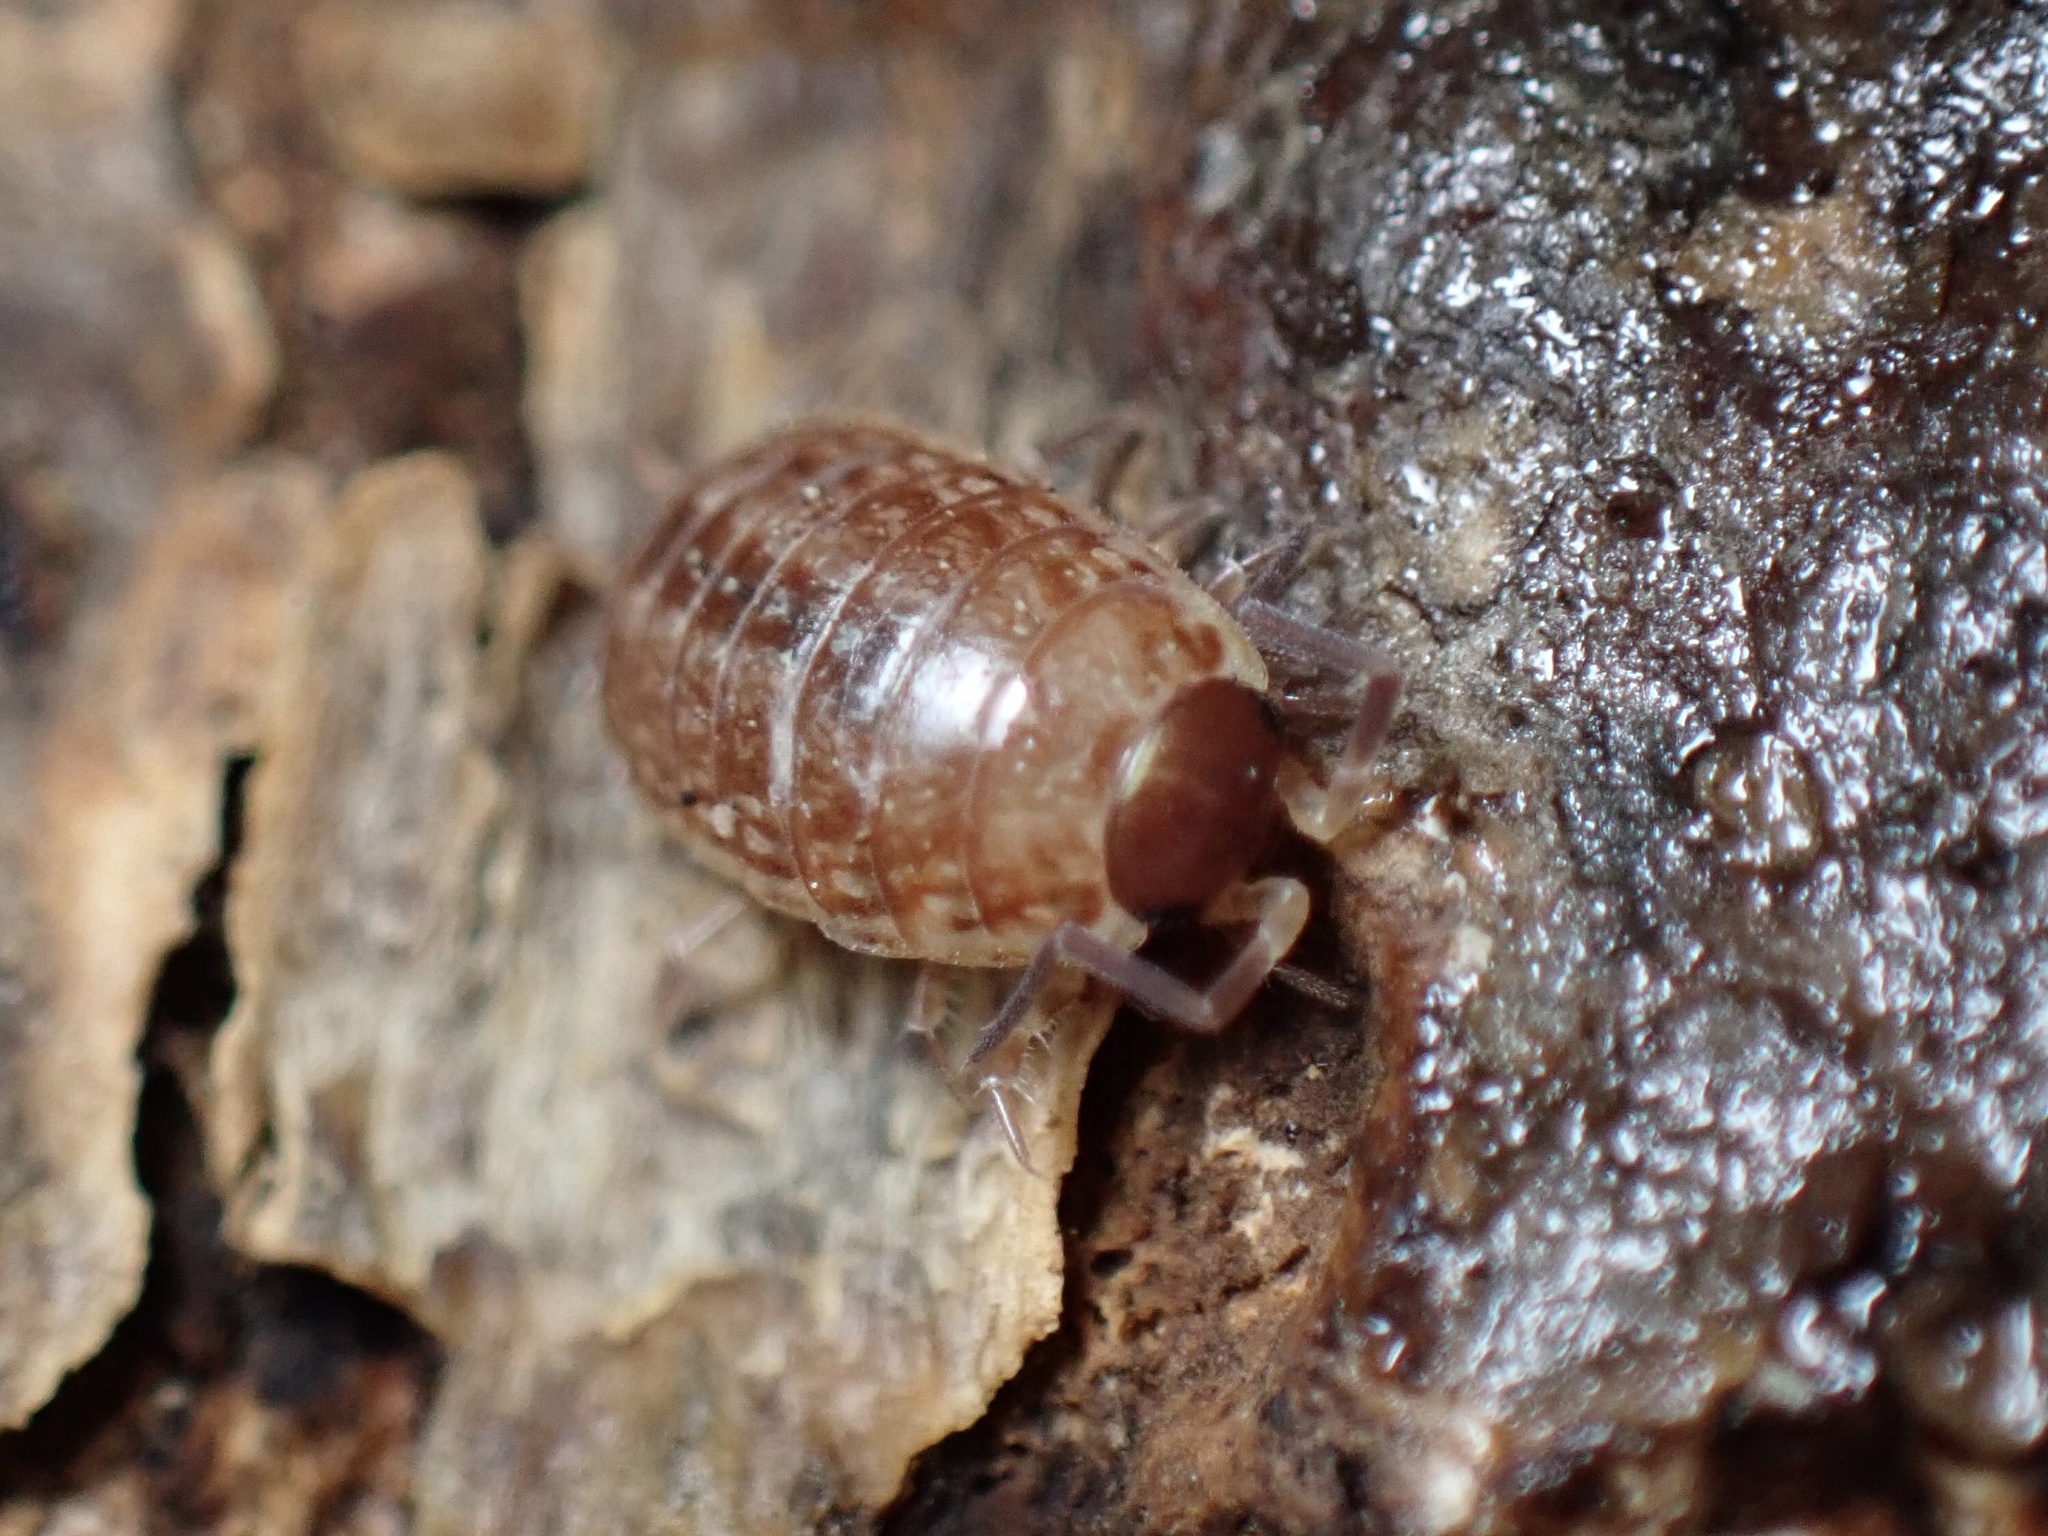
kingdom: Animalia
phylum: Arthropoda
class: Malacostraca
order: Isopoda
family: Philosciidae
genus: Philoscia
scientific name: Philoscia muscorum
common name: Common striped woodlouse
